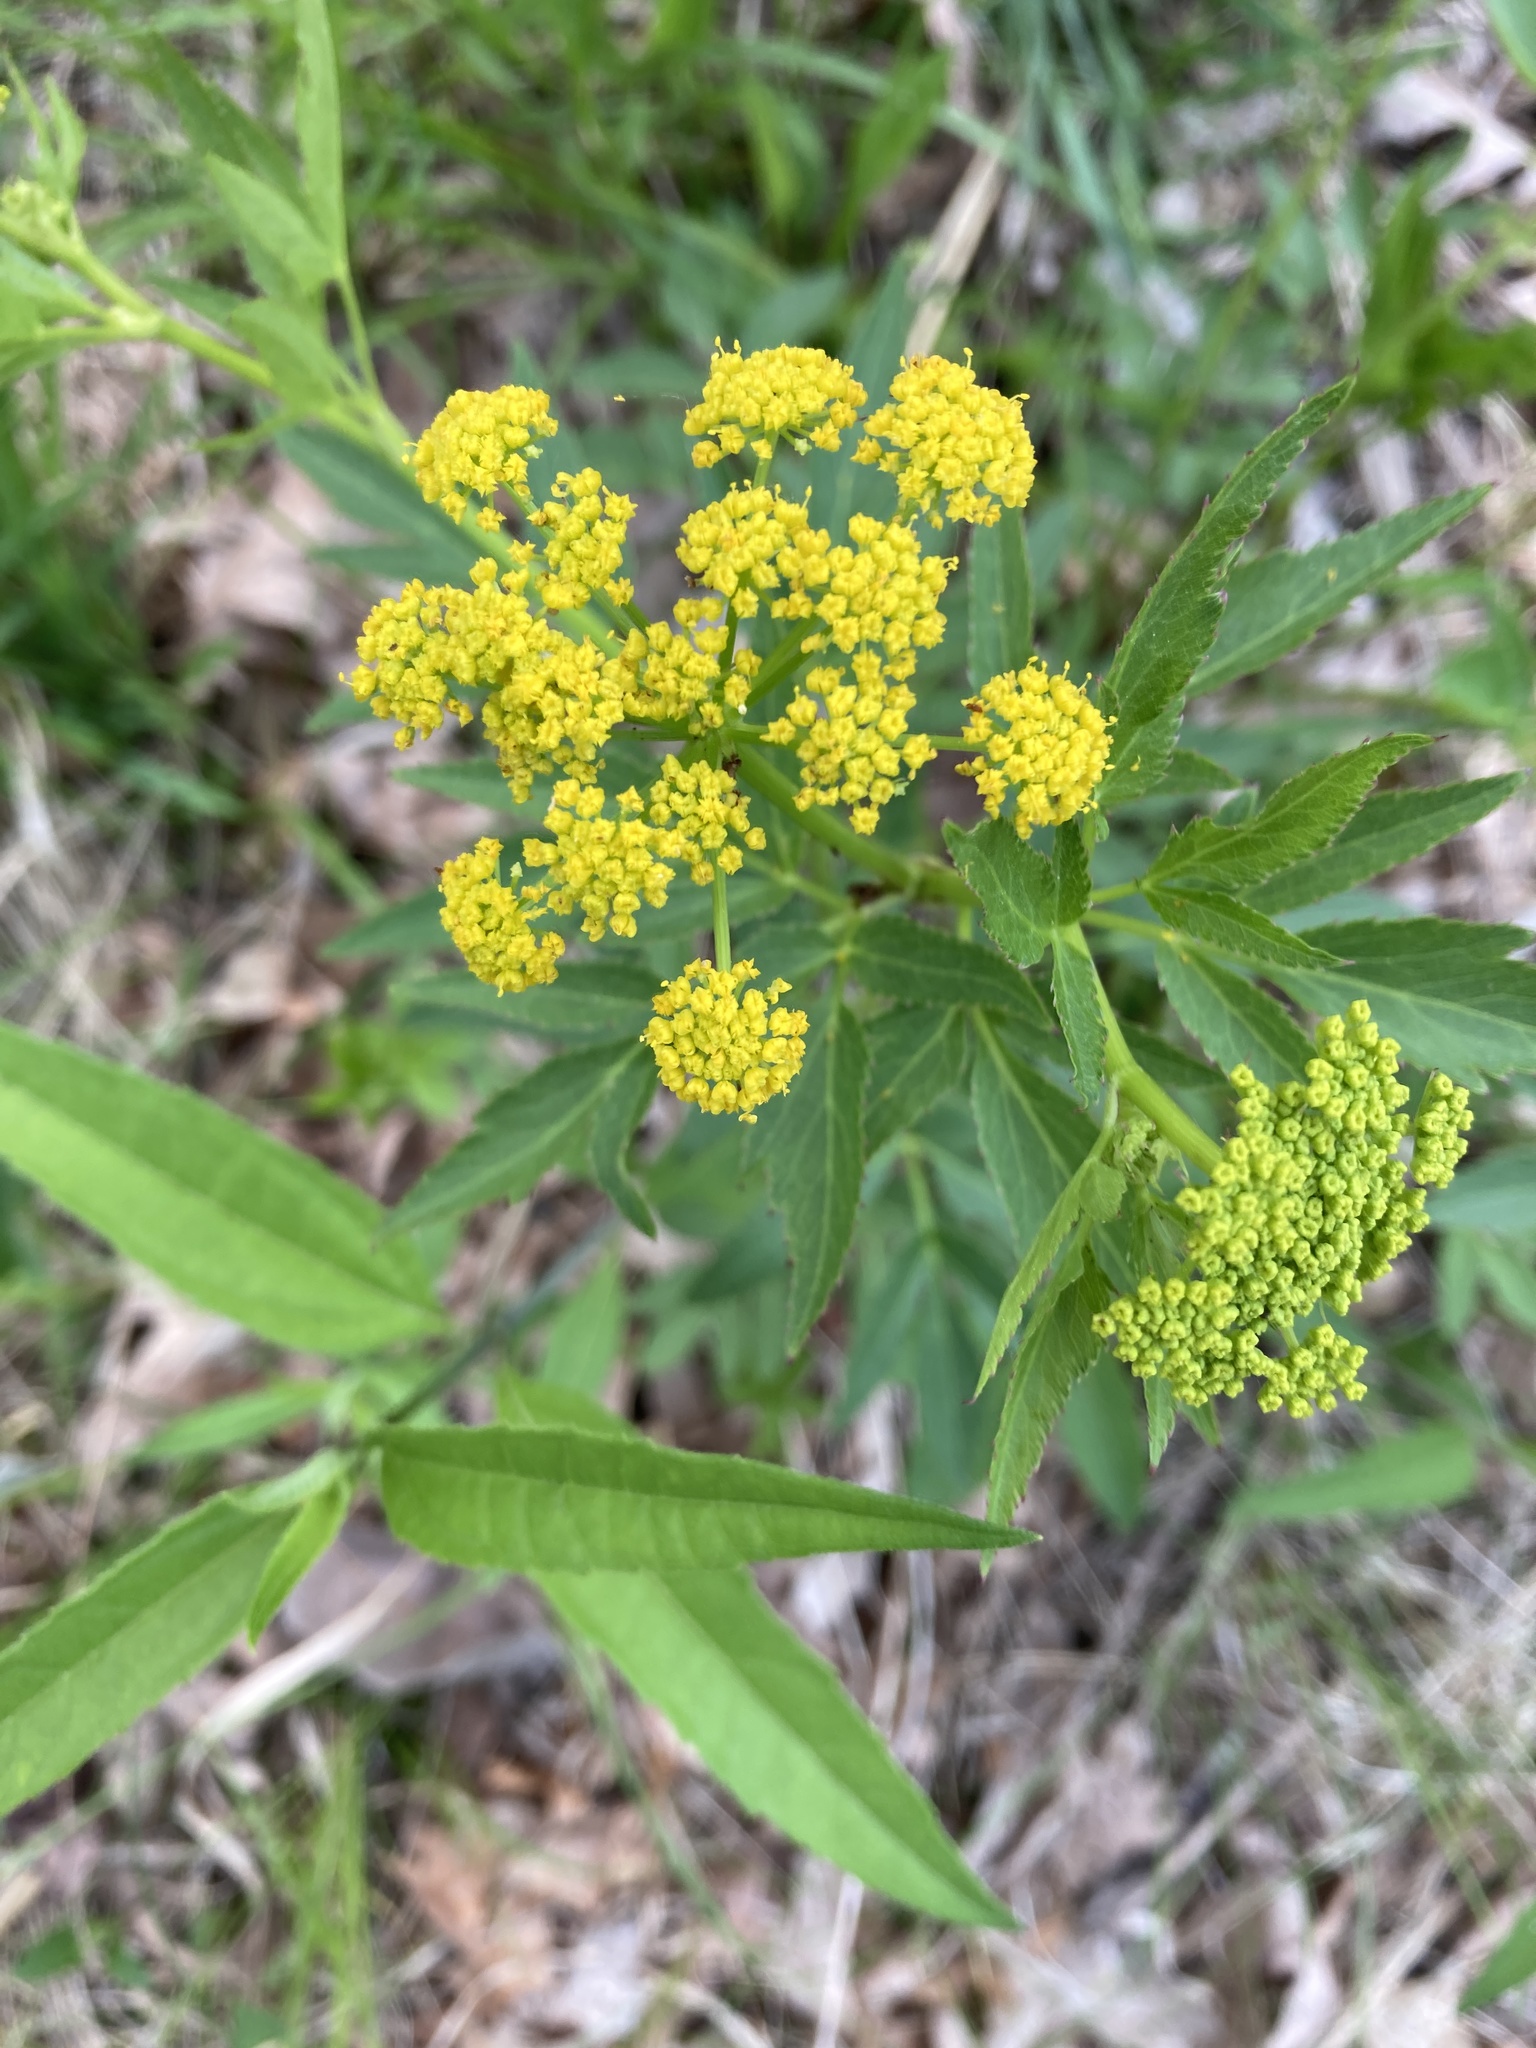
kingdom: Plantae
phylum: Tracheophyta
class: Magnoliopsida
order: Apiales
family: Apiaceae
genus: Zizia
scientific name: Zizia aurea
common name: Golden alexanders
